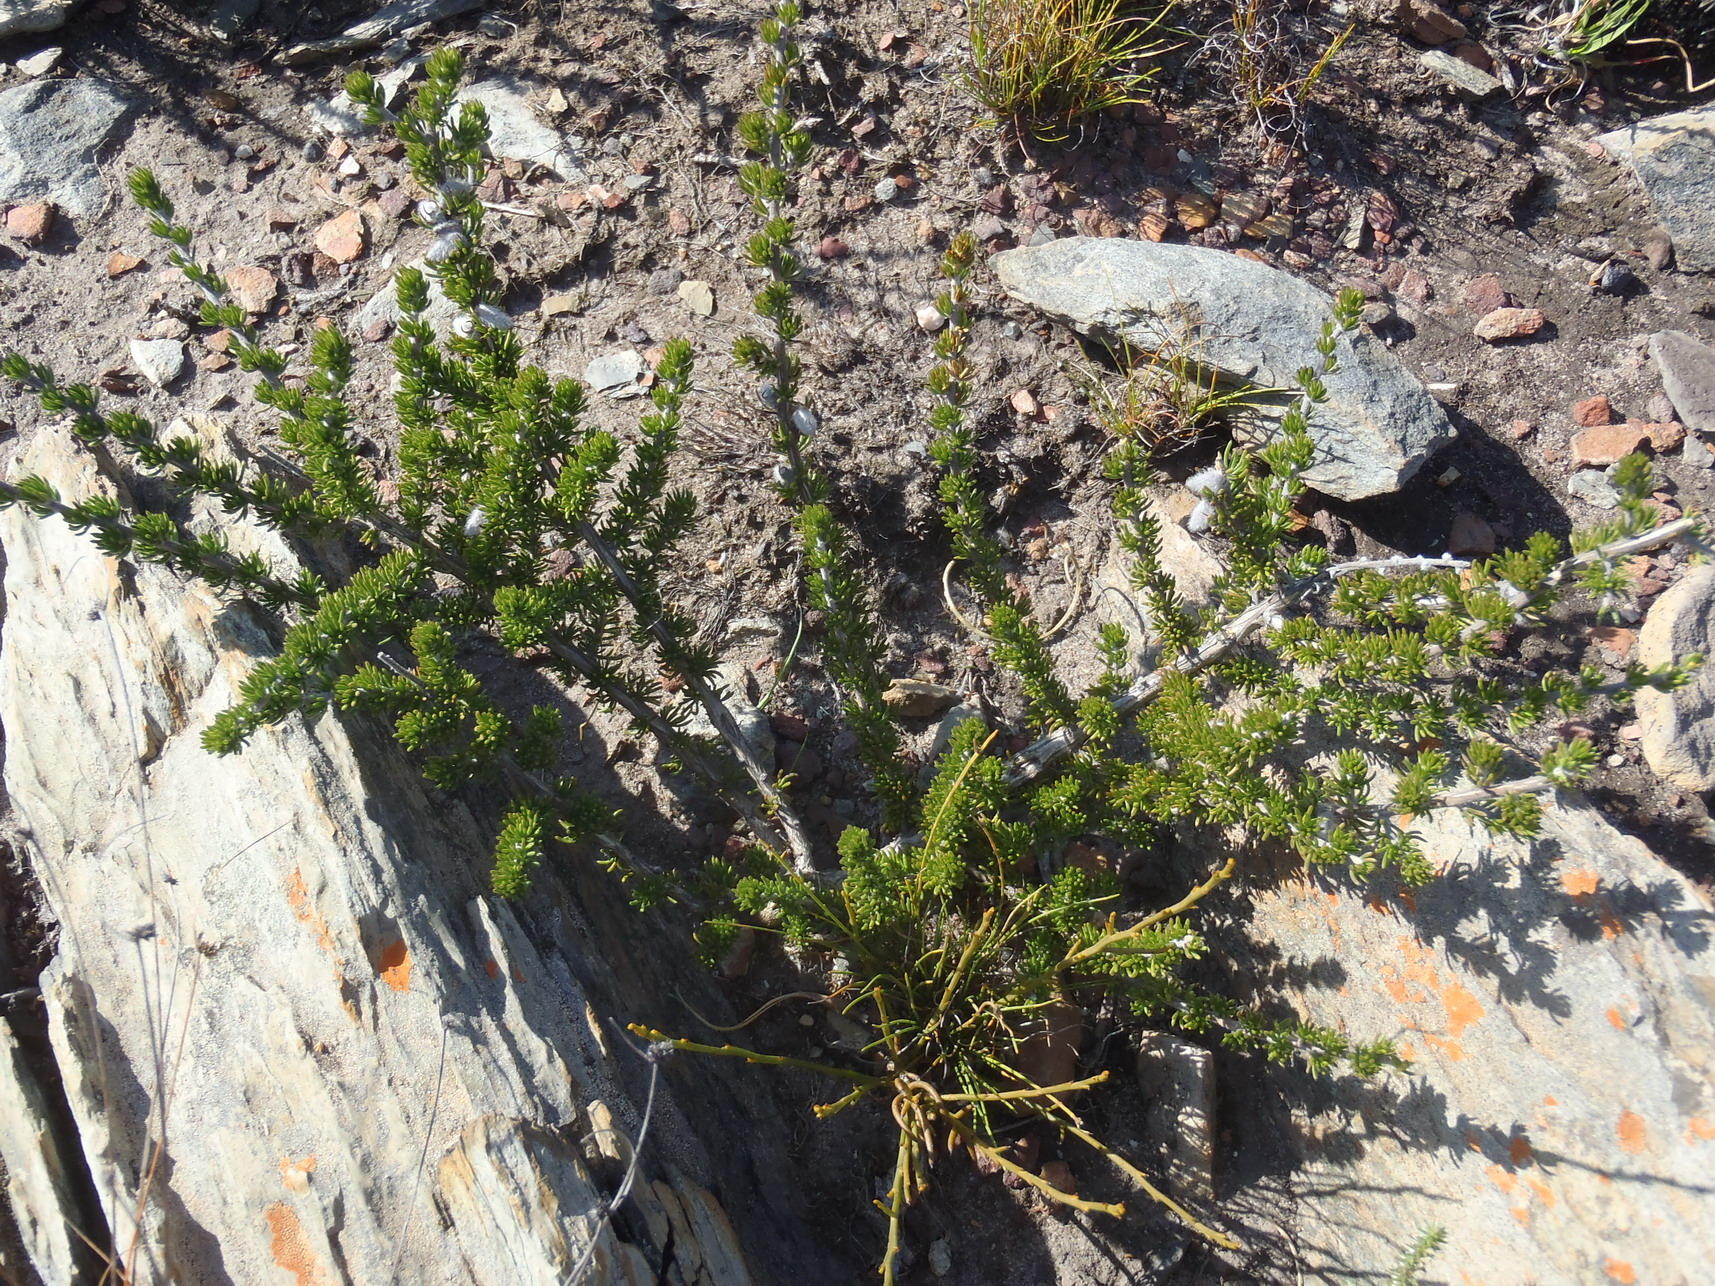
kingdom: Plantae
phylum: Tracheophyta
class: Magnoliopsida
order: Fabales
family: Fabaceae
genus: Aspalathus
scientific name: Aspalathus congesta
